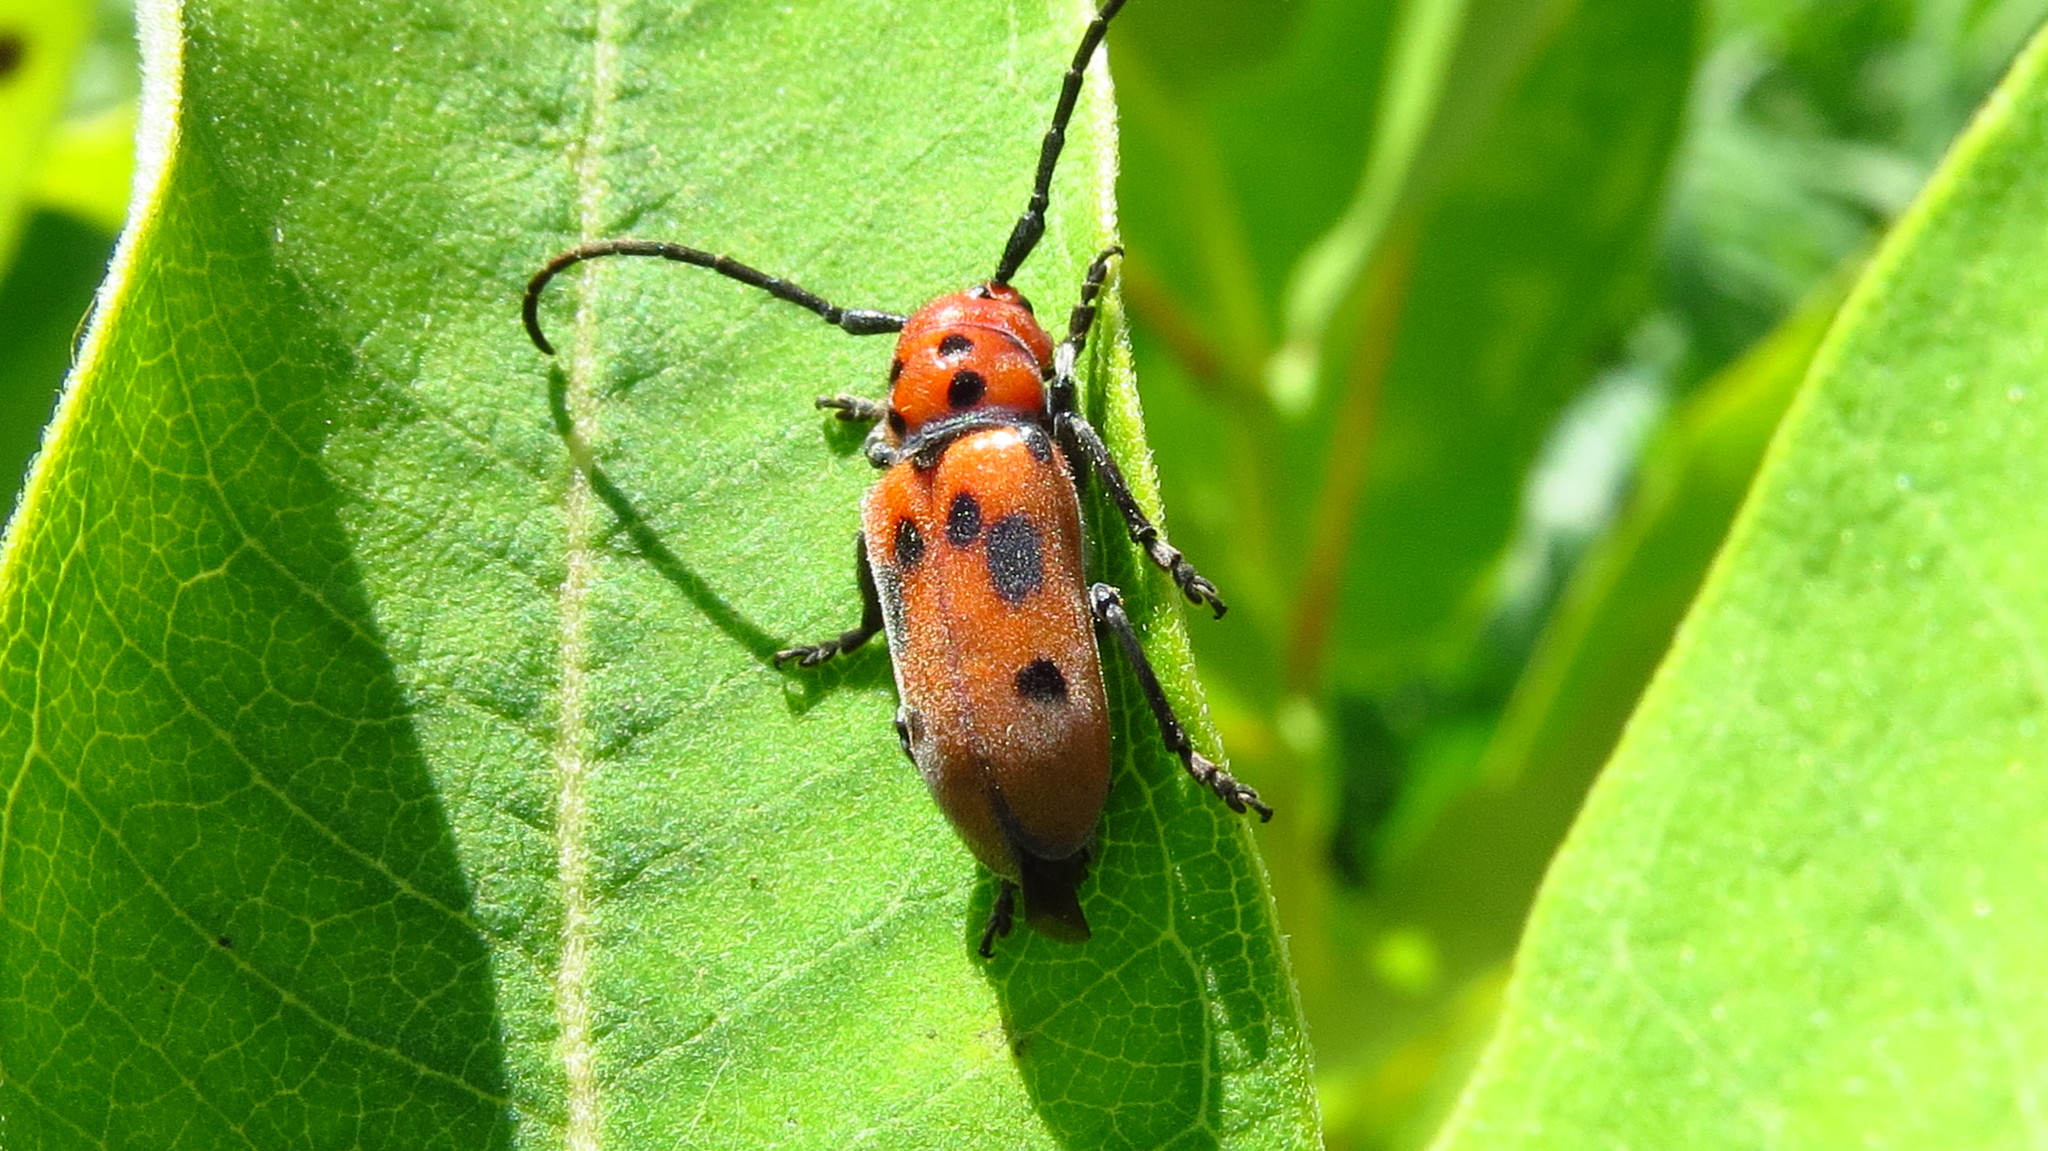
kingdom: Animalia
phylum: Arthropoda
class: Insecta
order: Coleoptera
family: Cerambycidae
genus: Tetraopes
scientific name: Tetraopes tetrophthalmus
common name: Red milkweed beetle
